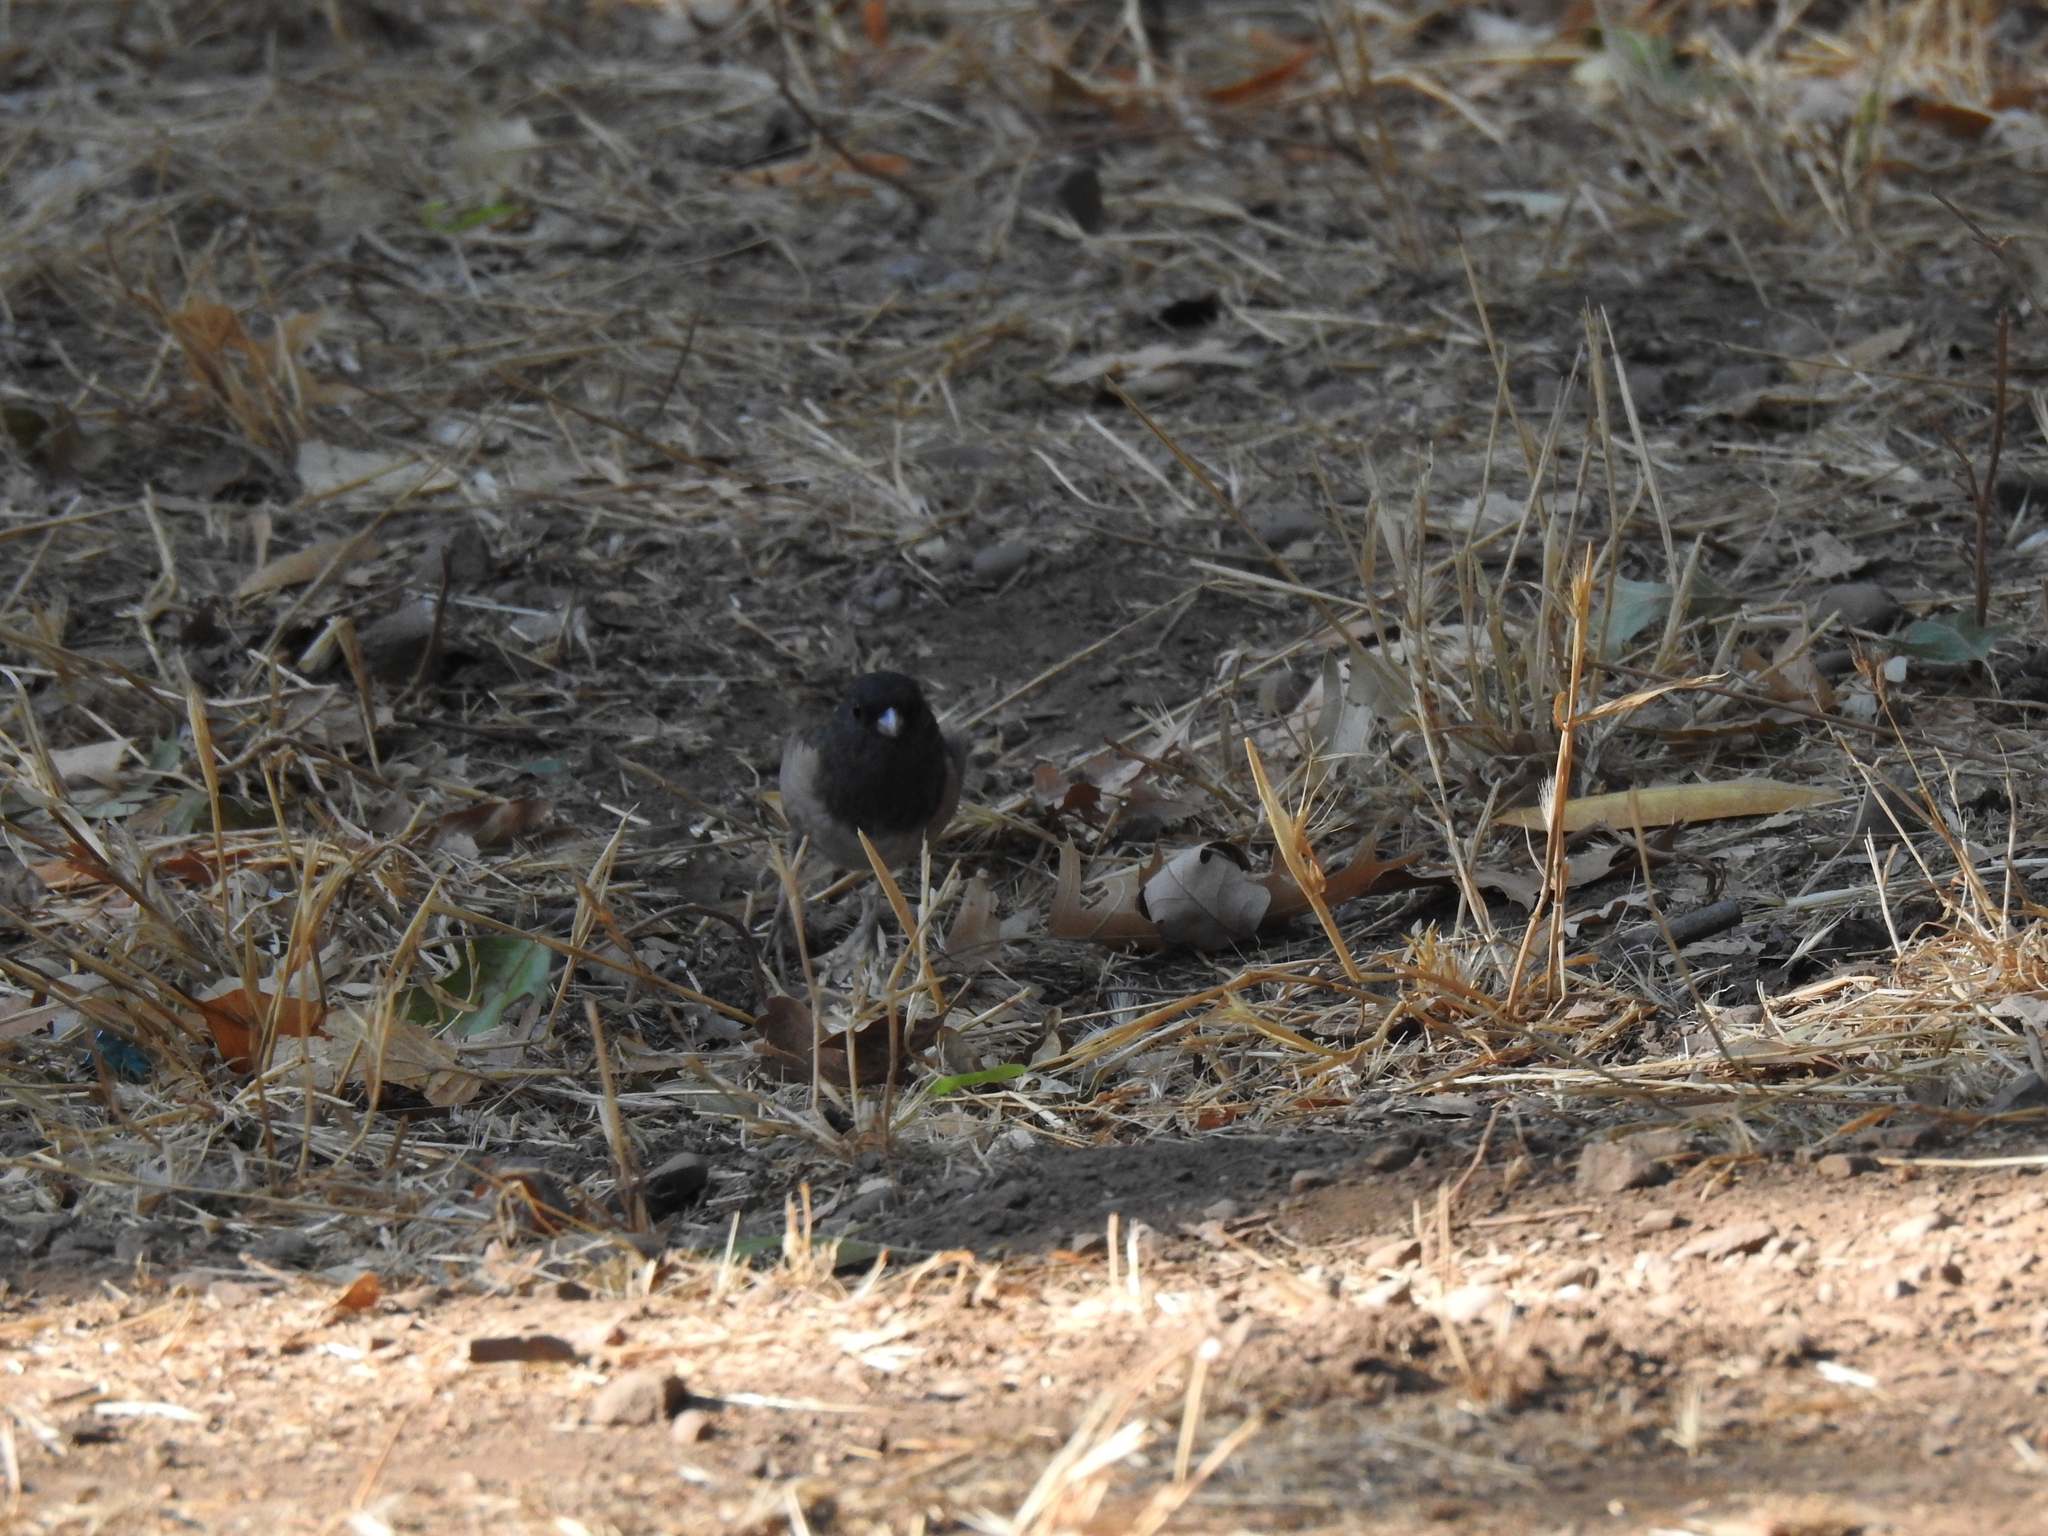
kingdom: Animalia
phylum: Chordata
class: Aves
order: Passeriformes
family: Passerellidae
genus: Junco
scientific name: Junco hyemalis
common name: Dark-eyed junco
